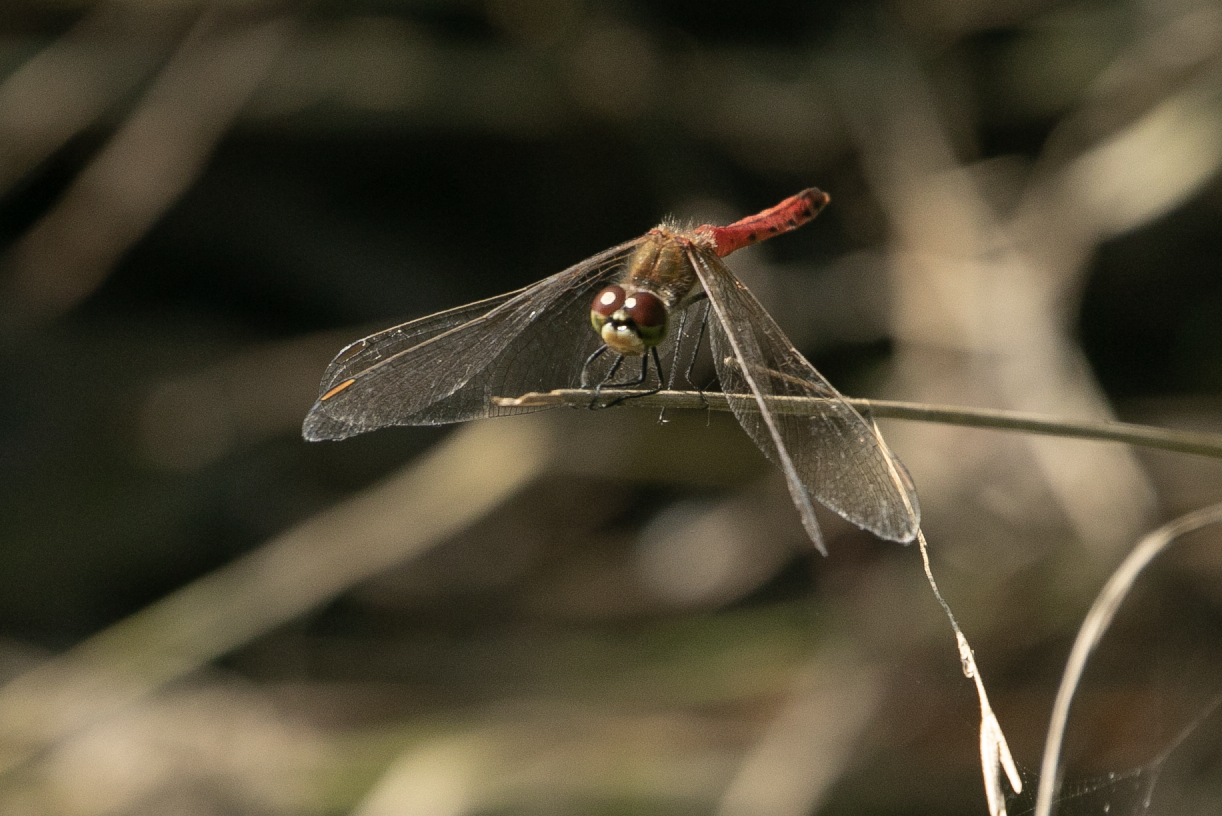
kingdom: Animalia
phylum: Arthropoda
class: Insecta
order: Odonata
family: Libellulidae
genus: Sympetrum
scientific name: Sympetrum depressiusculum
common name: Spotted darter
